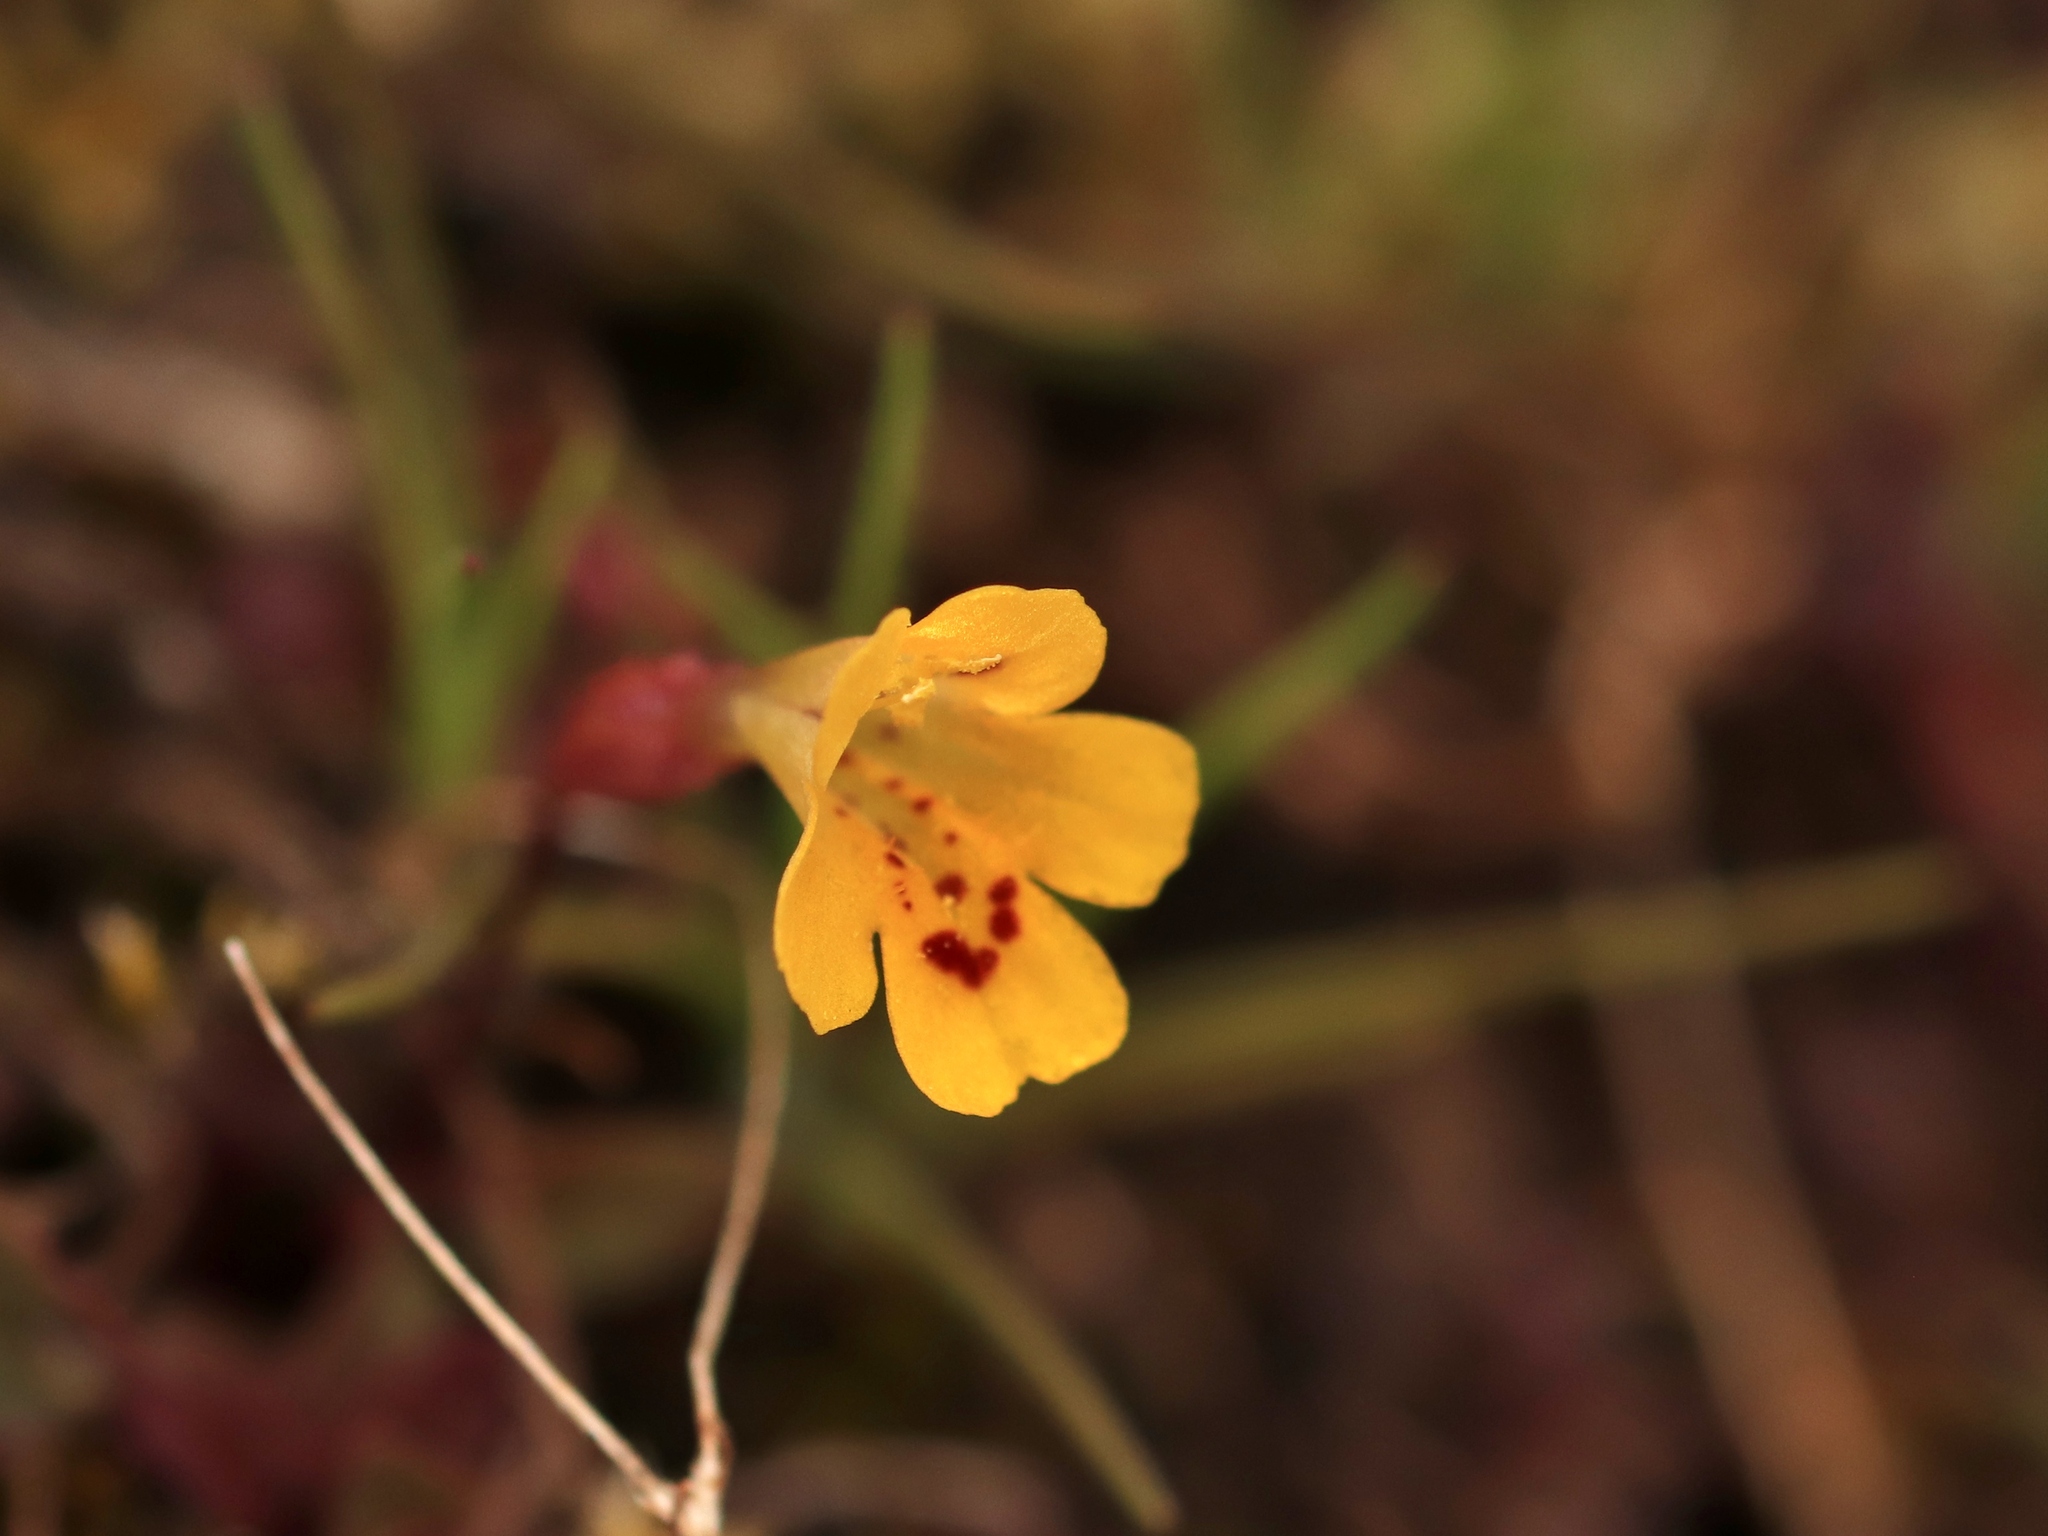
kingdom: Plantae
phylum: Tracheophyta
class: Magnoliopsida
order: Lamiales
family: Phrymaceae
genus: Erythranthe
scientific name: Erythranthe alsinoides
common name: Chickweed monkeyflower
